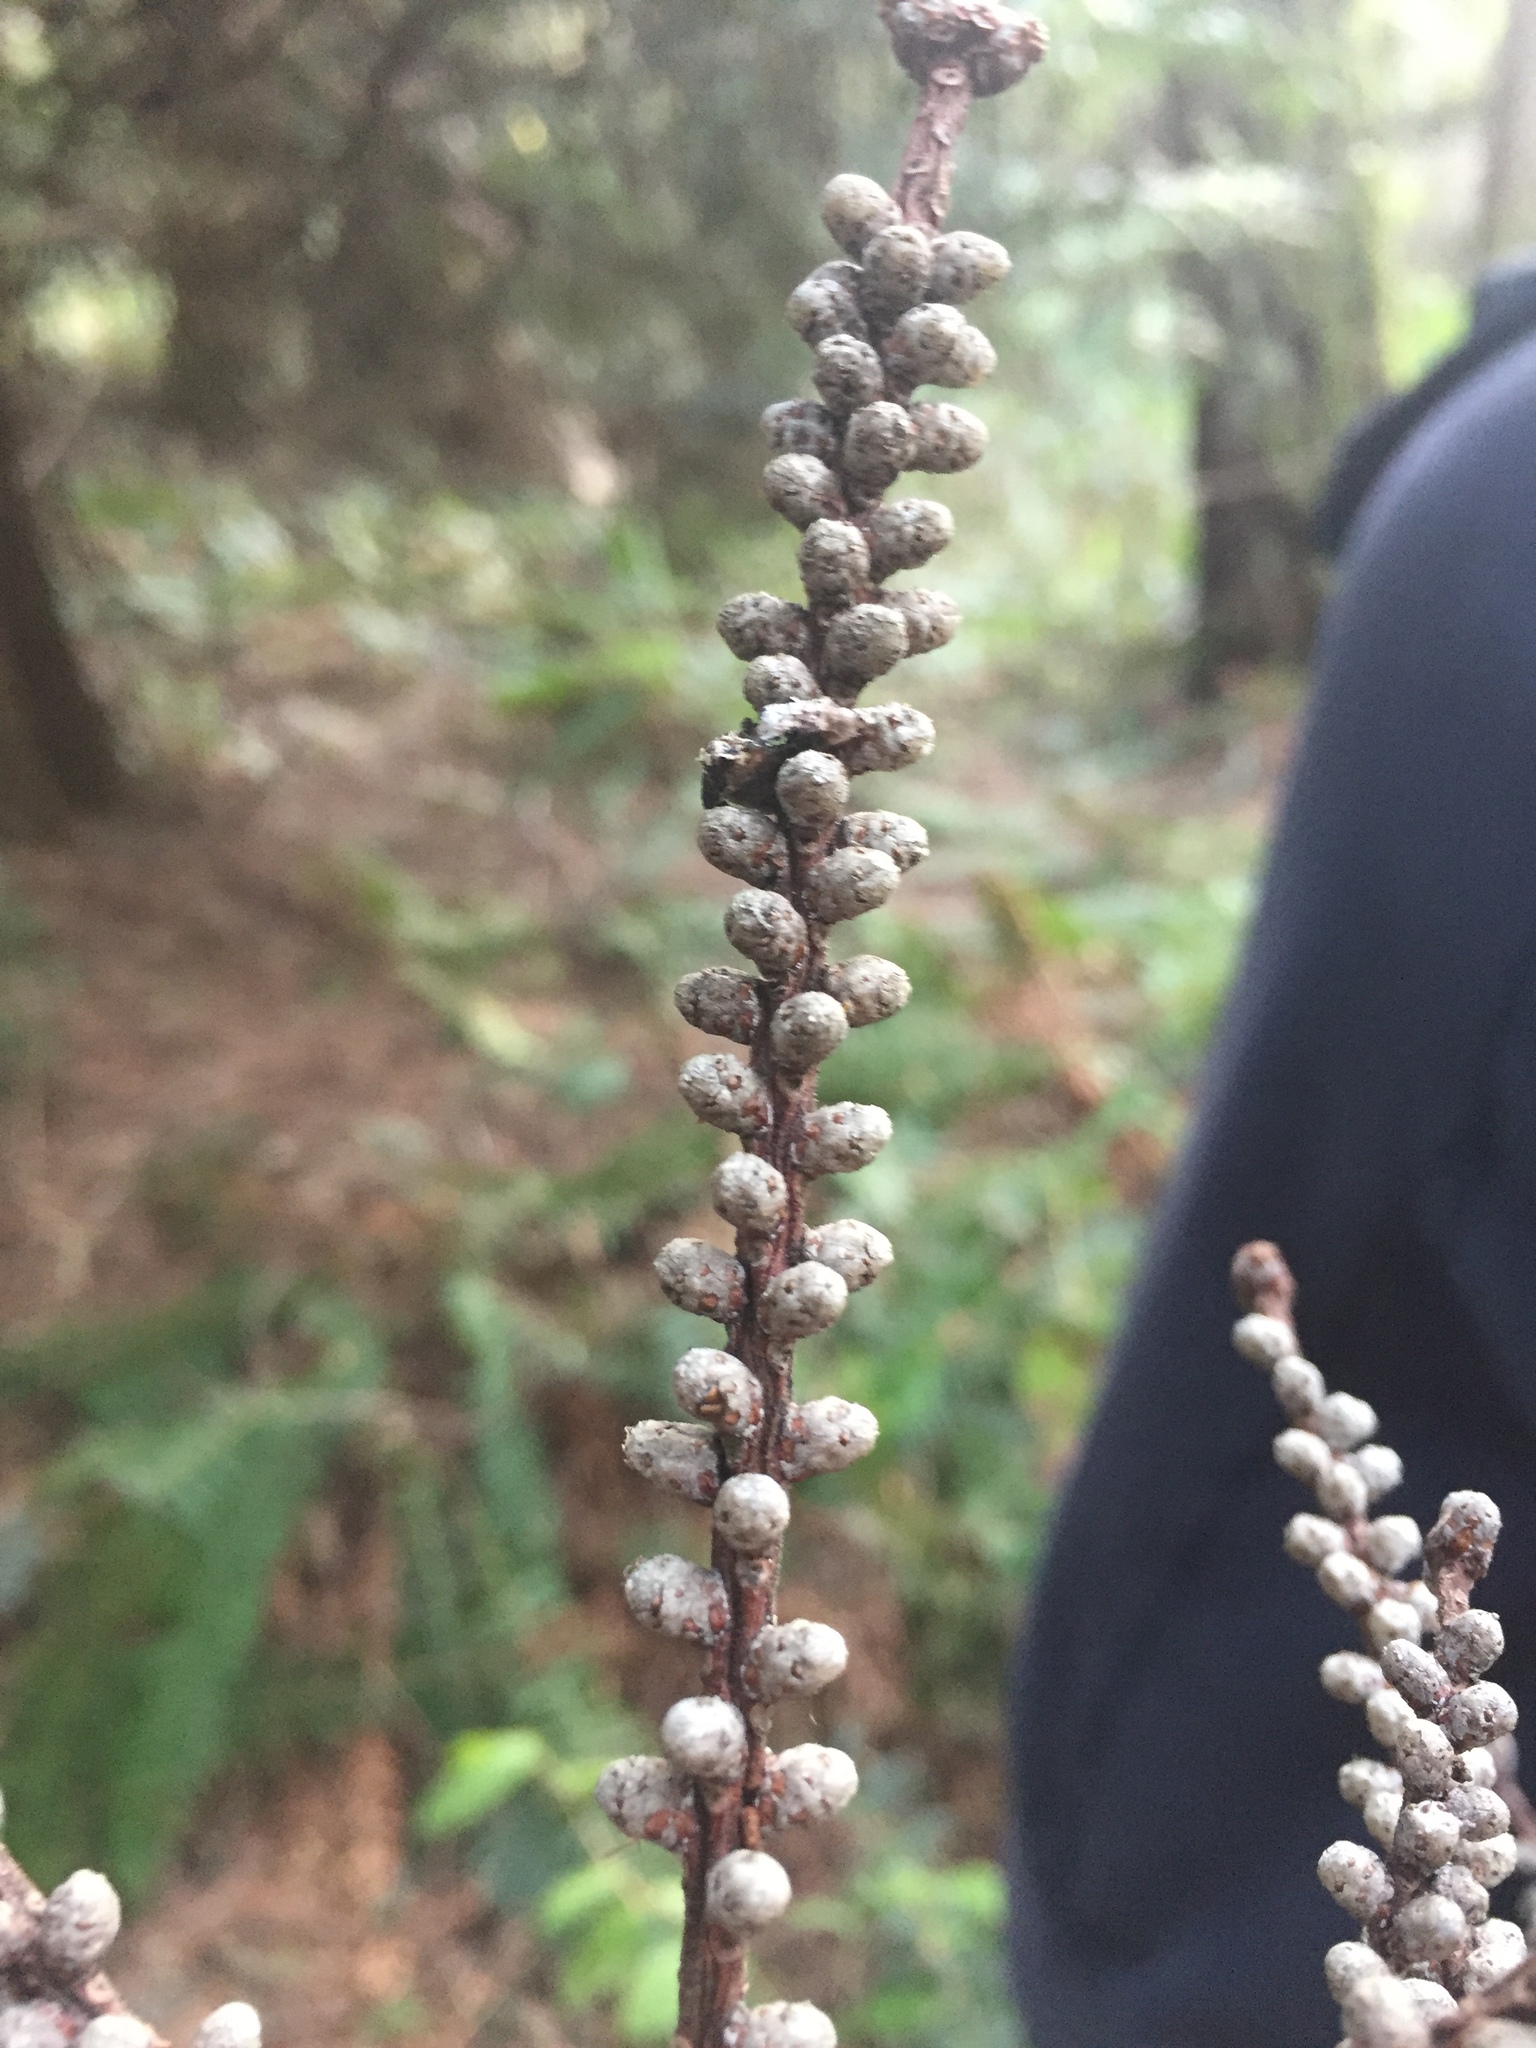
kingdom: Plantae
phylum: Tracheophyta
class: Pinopsida
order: Pinales
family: Pinaceae
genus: Abies
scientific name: Abies grandis
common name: Giant fir
